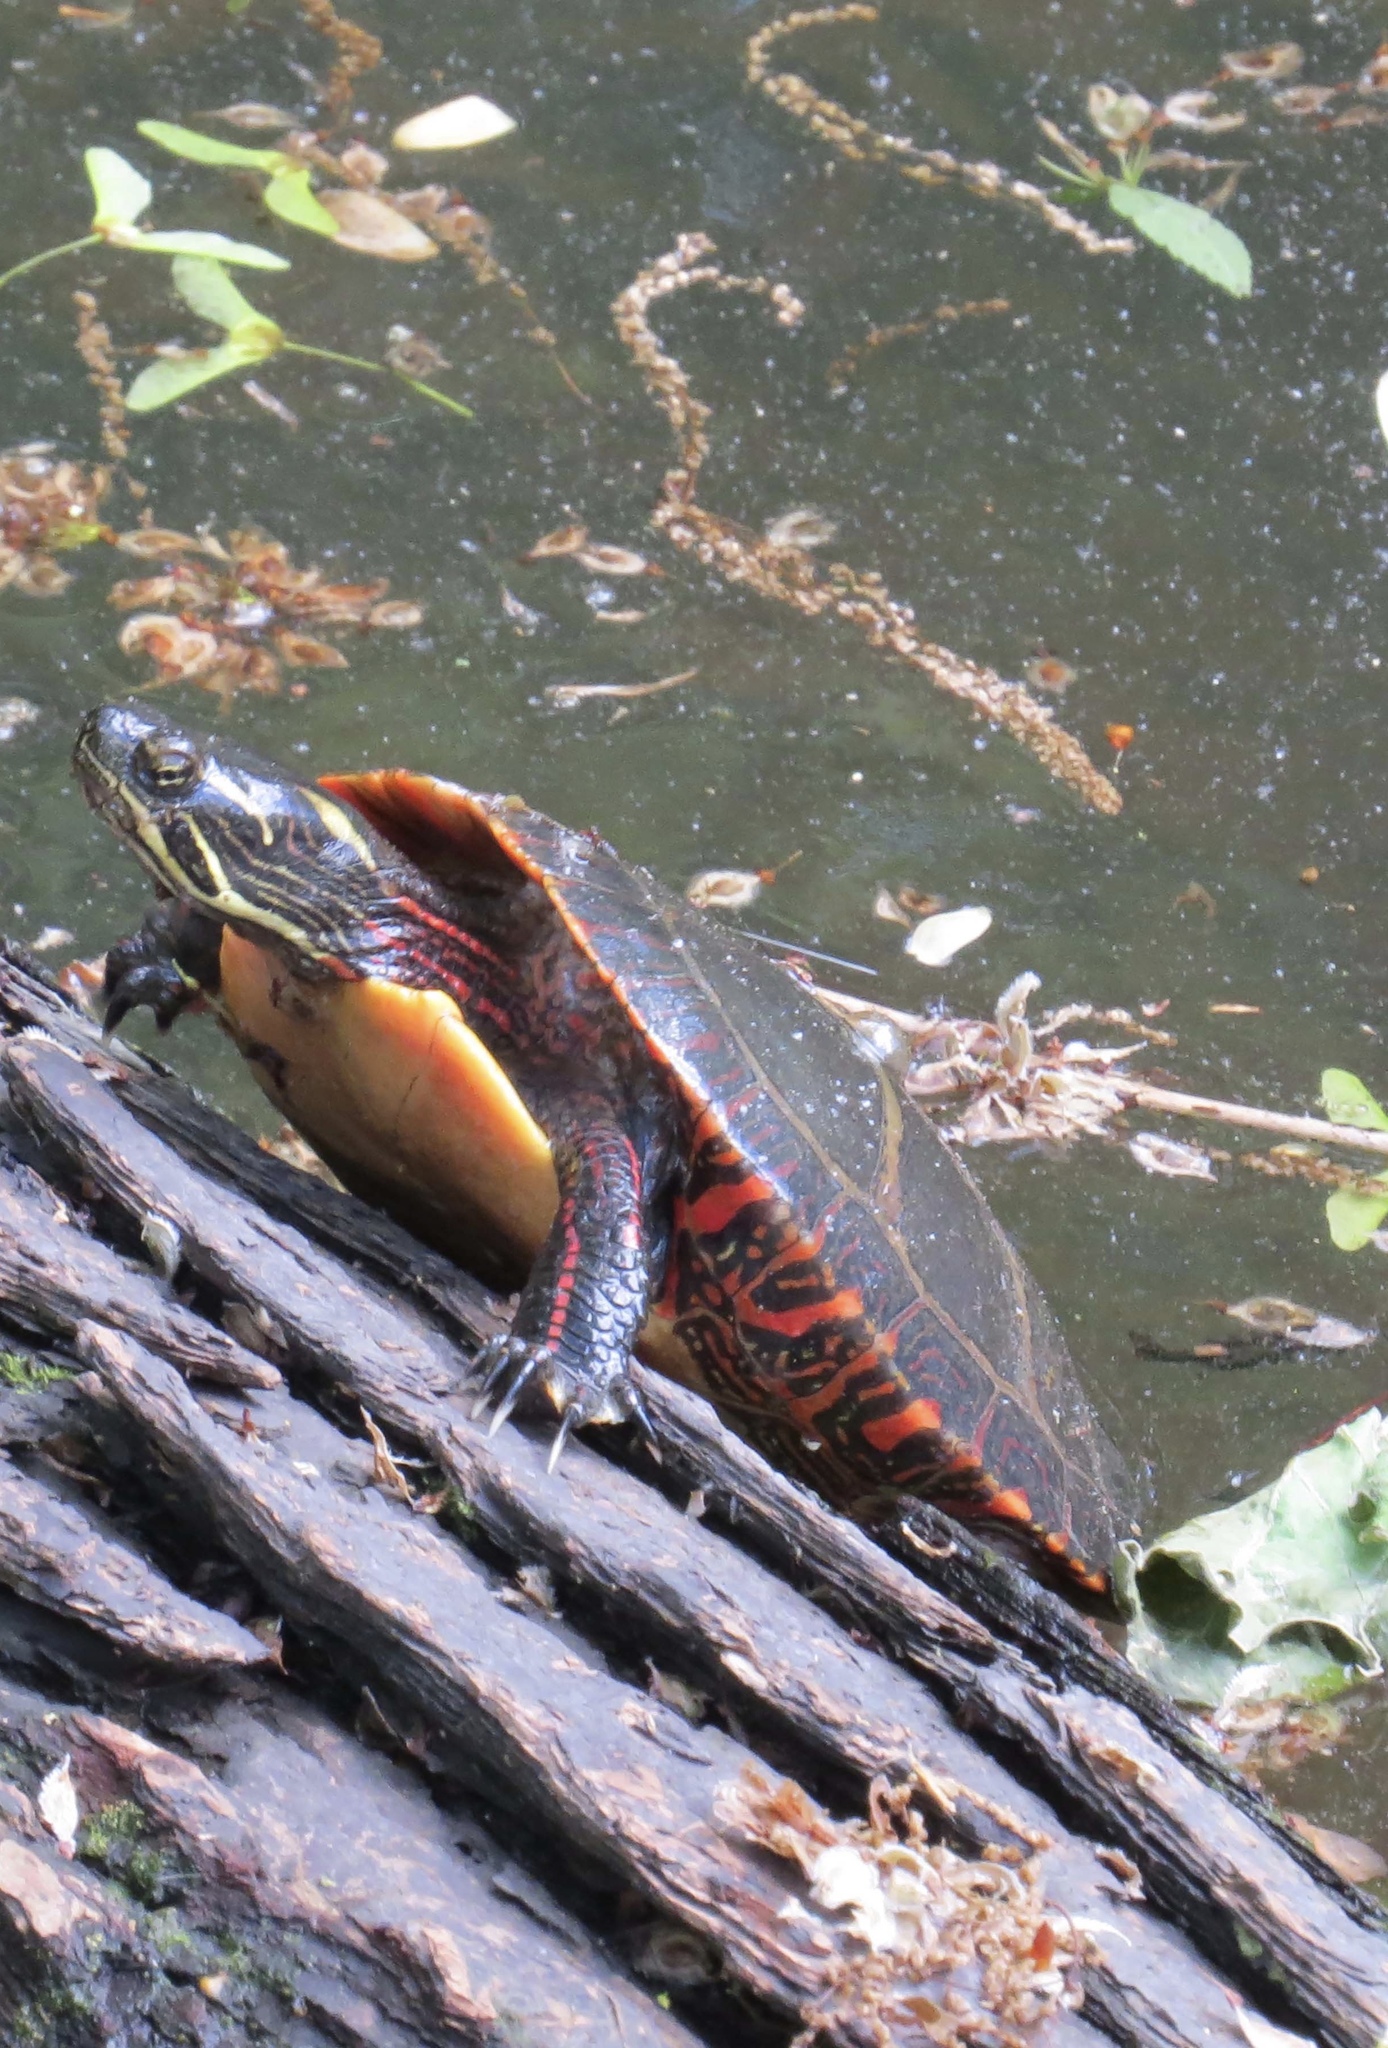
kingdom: Animalia
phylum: Chordata
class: Testudines
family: Emydidae
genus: Chrysemys
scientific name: Chrysemys picta
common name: Painted turtle
